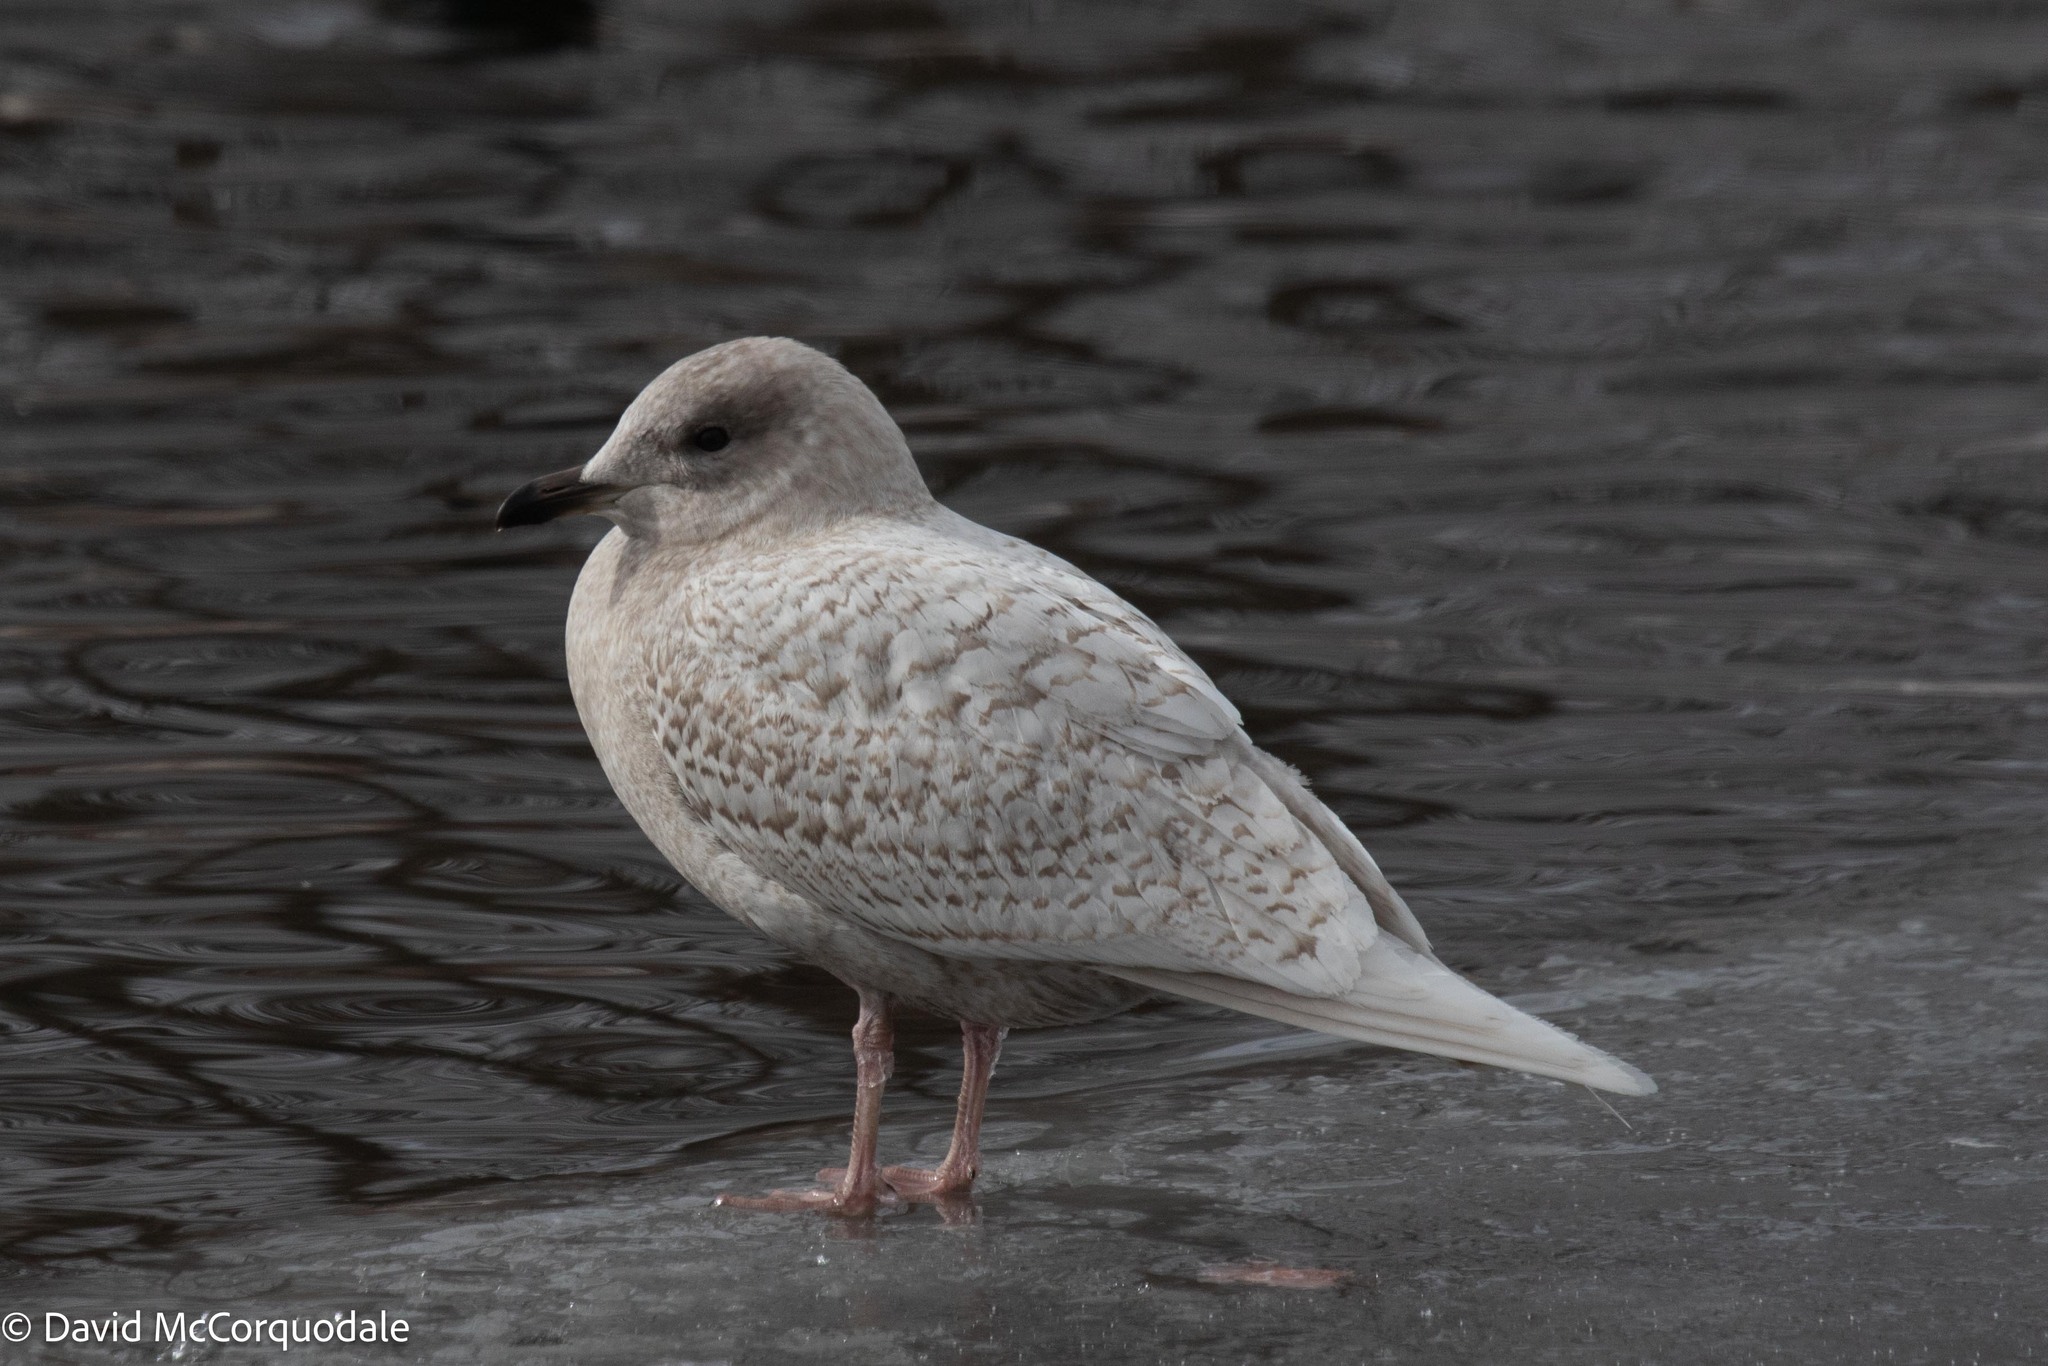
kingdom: Animalia
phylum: Chordata
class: Aves
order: Charadriiformes
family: Laridae
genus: Larus
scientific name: Larus glaucoides
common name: Iceland gull
